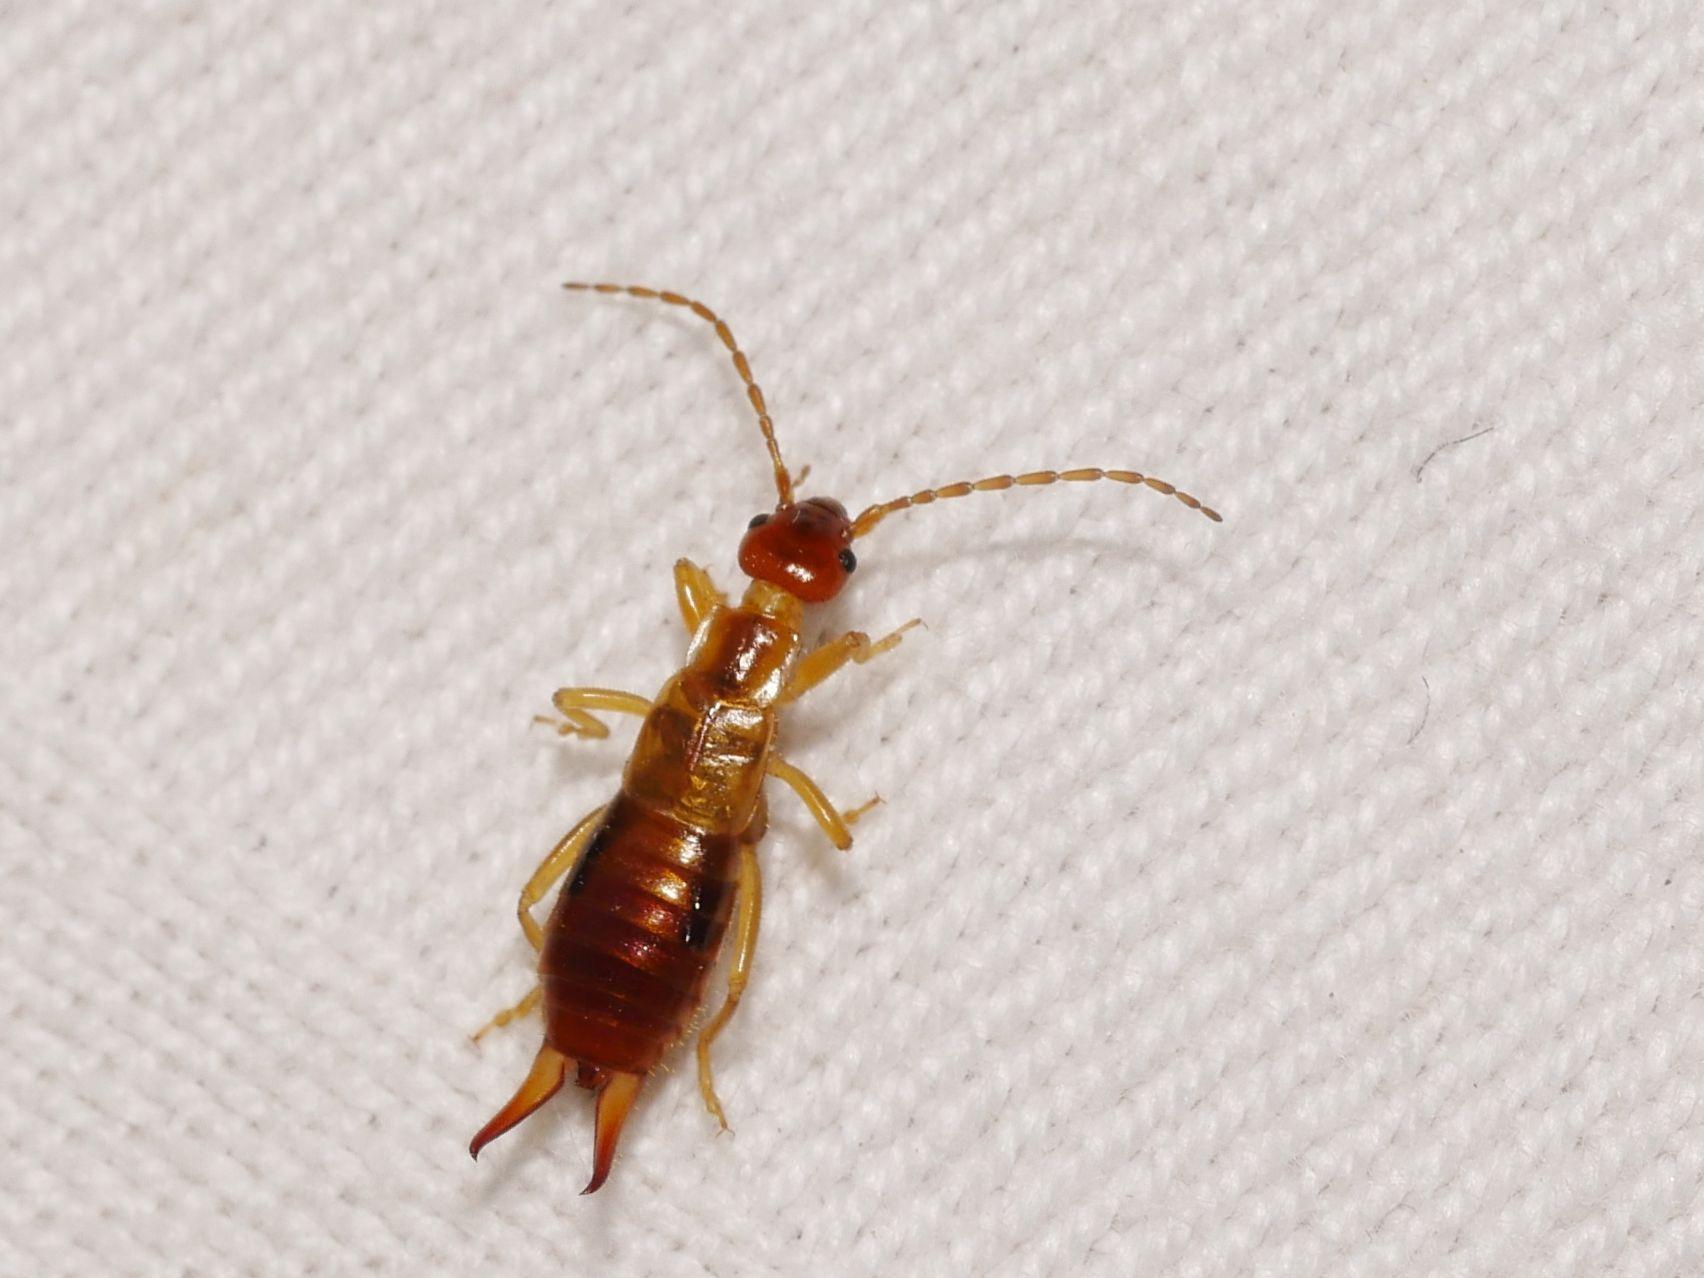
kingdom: Animalia
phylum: Arthropoda
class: Insecta
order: Dermaptera
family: Forficulidae
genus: Apterygida
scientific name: Apterygida albipennis
